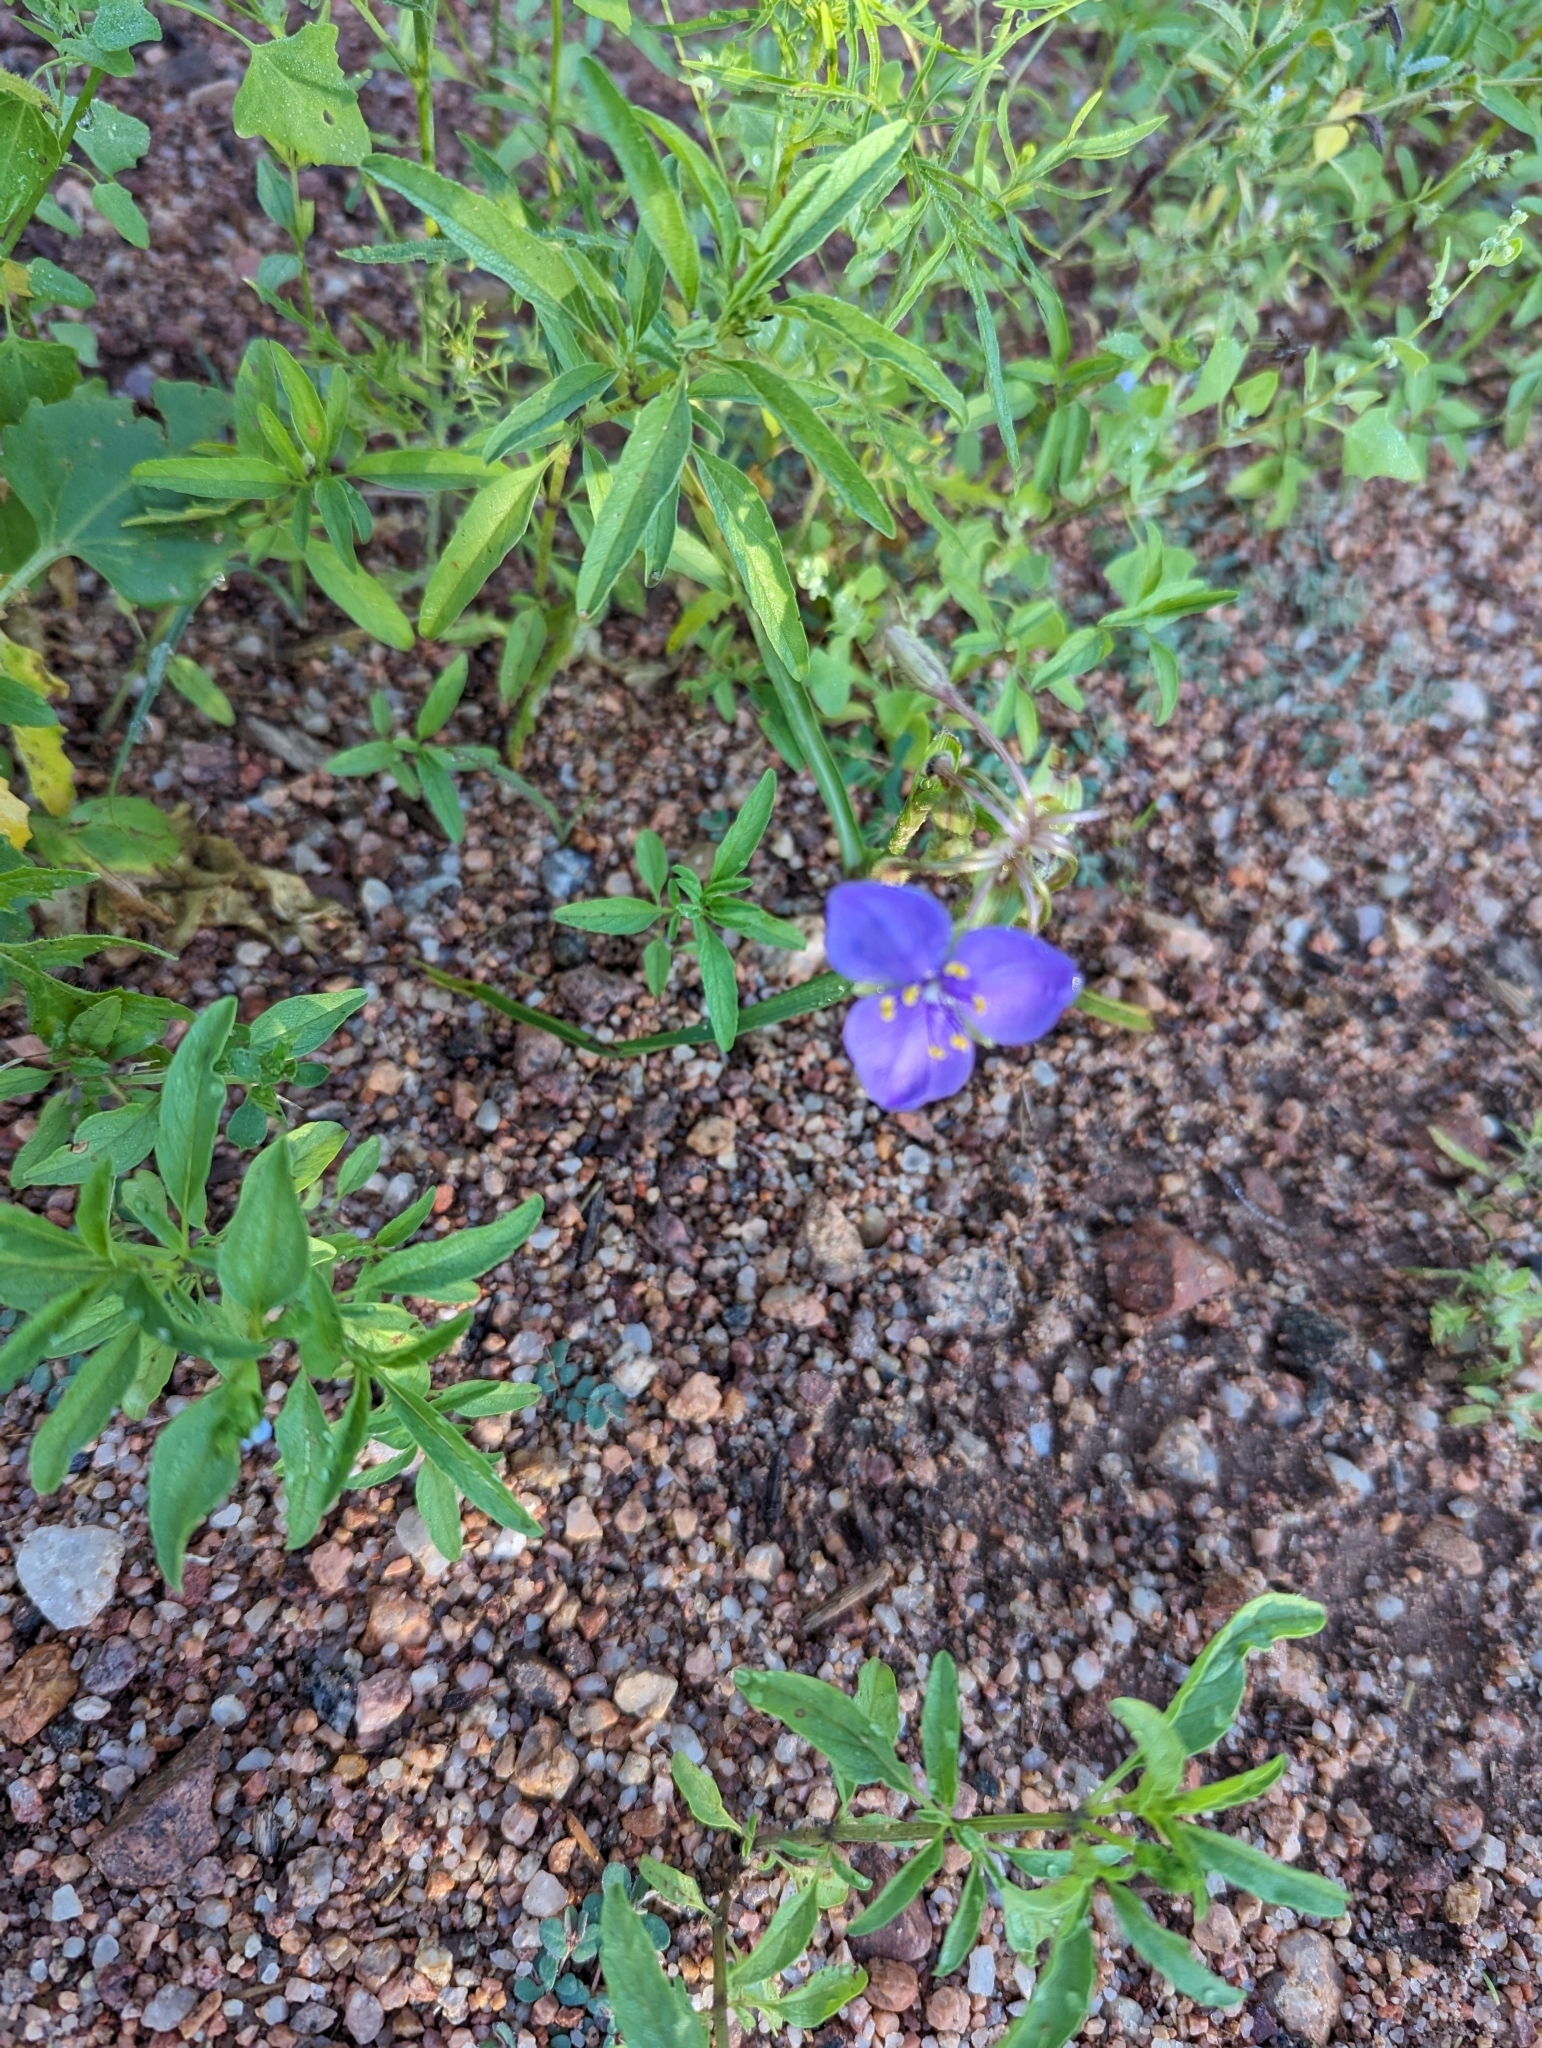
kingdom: Plantae
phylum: Tracheophyta
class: Liliopsida
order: Commelinales
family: Commelinaceae
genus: Tradescantia
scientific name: Tradescantia occidentalis
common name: Prairie spiderwort
